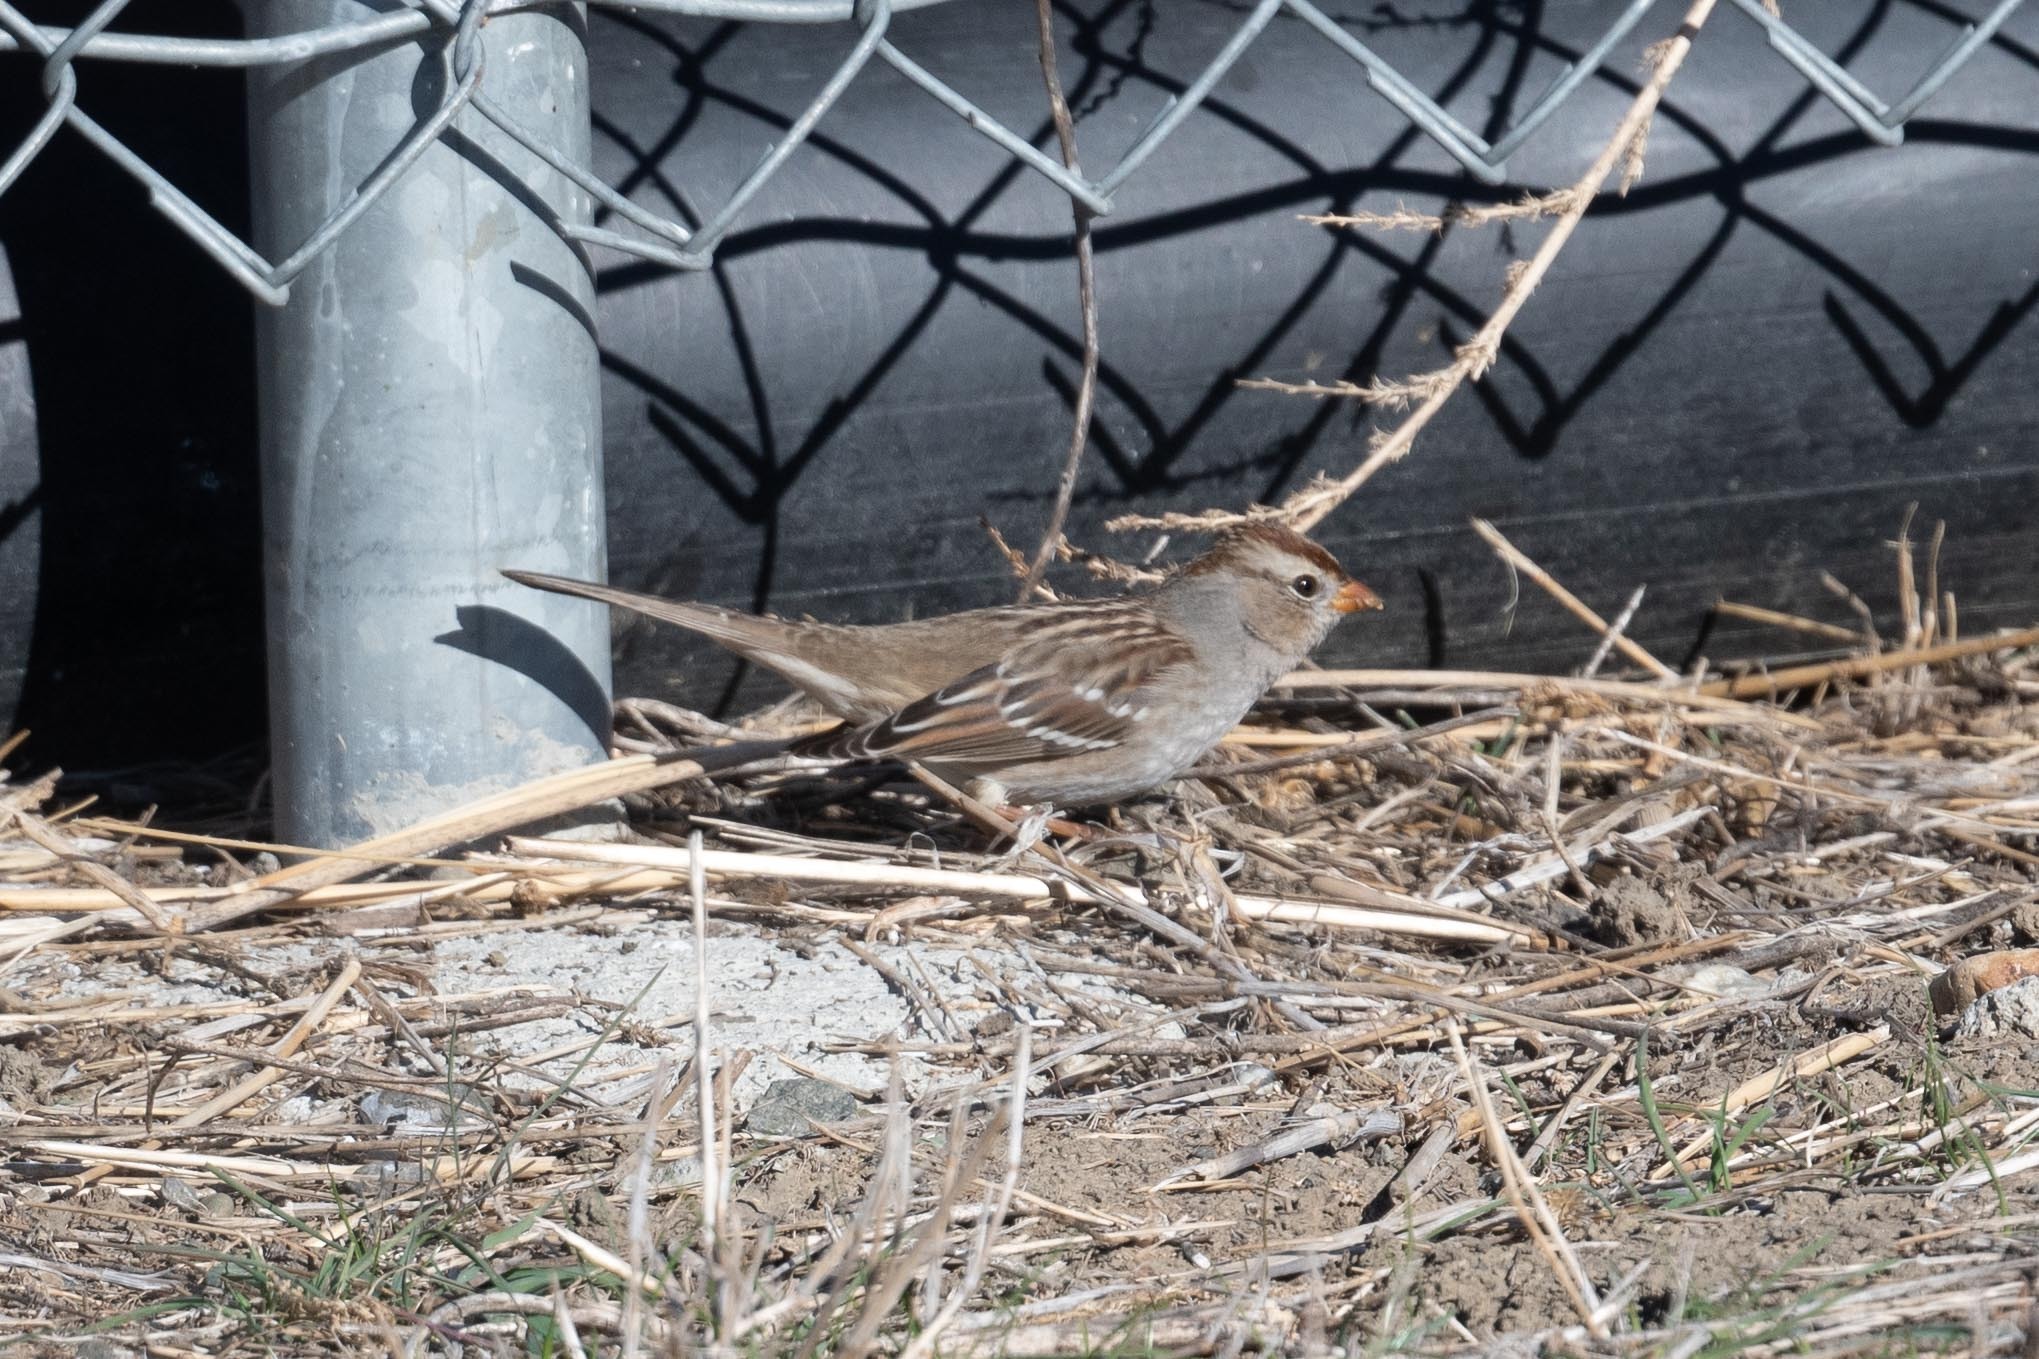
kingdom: Animalia
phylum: Chordata
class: Aves
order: Passeriformes
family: Passerellidae
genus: Zonotrichia
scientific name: Zonotrichia leucophrys
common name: White-crowned sparrow
